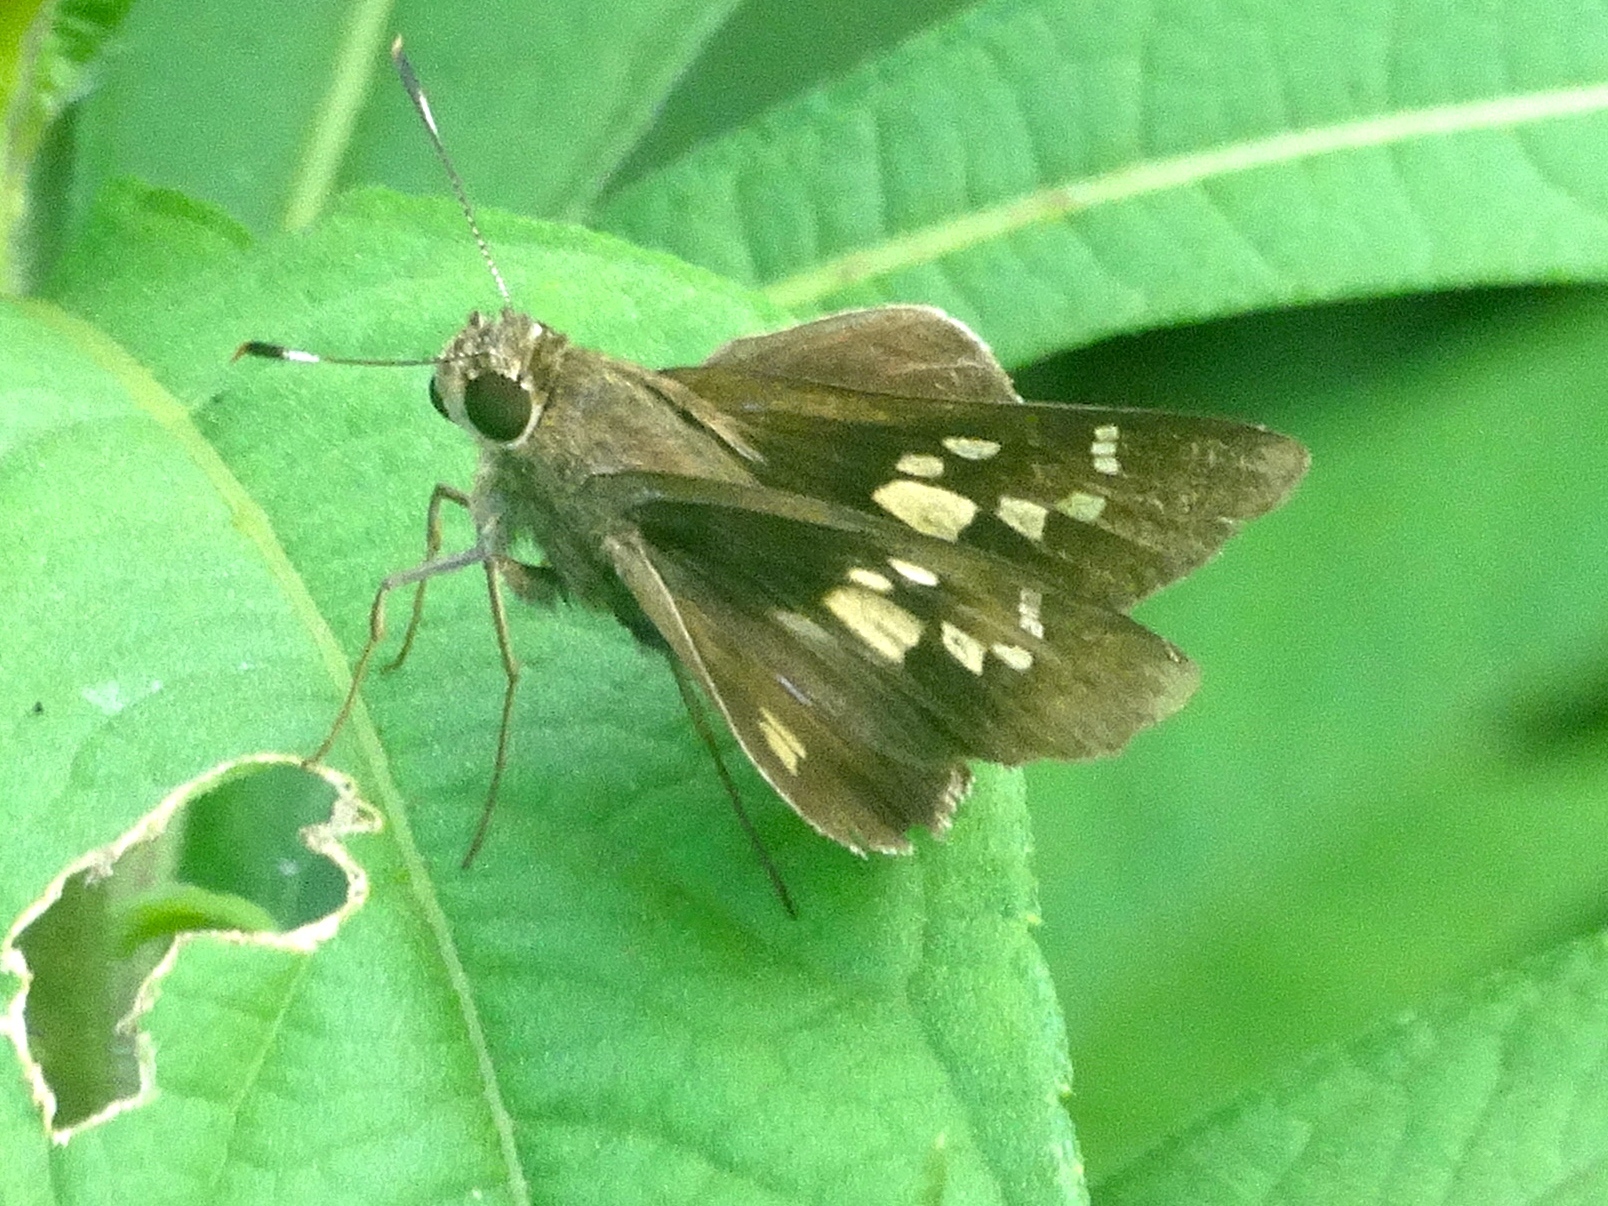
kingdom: Animalia
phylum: Arthropoda
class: Insecta
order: Lepidoptera
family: Hesperiidae
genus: Vacerra
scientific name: Vacerra
